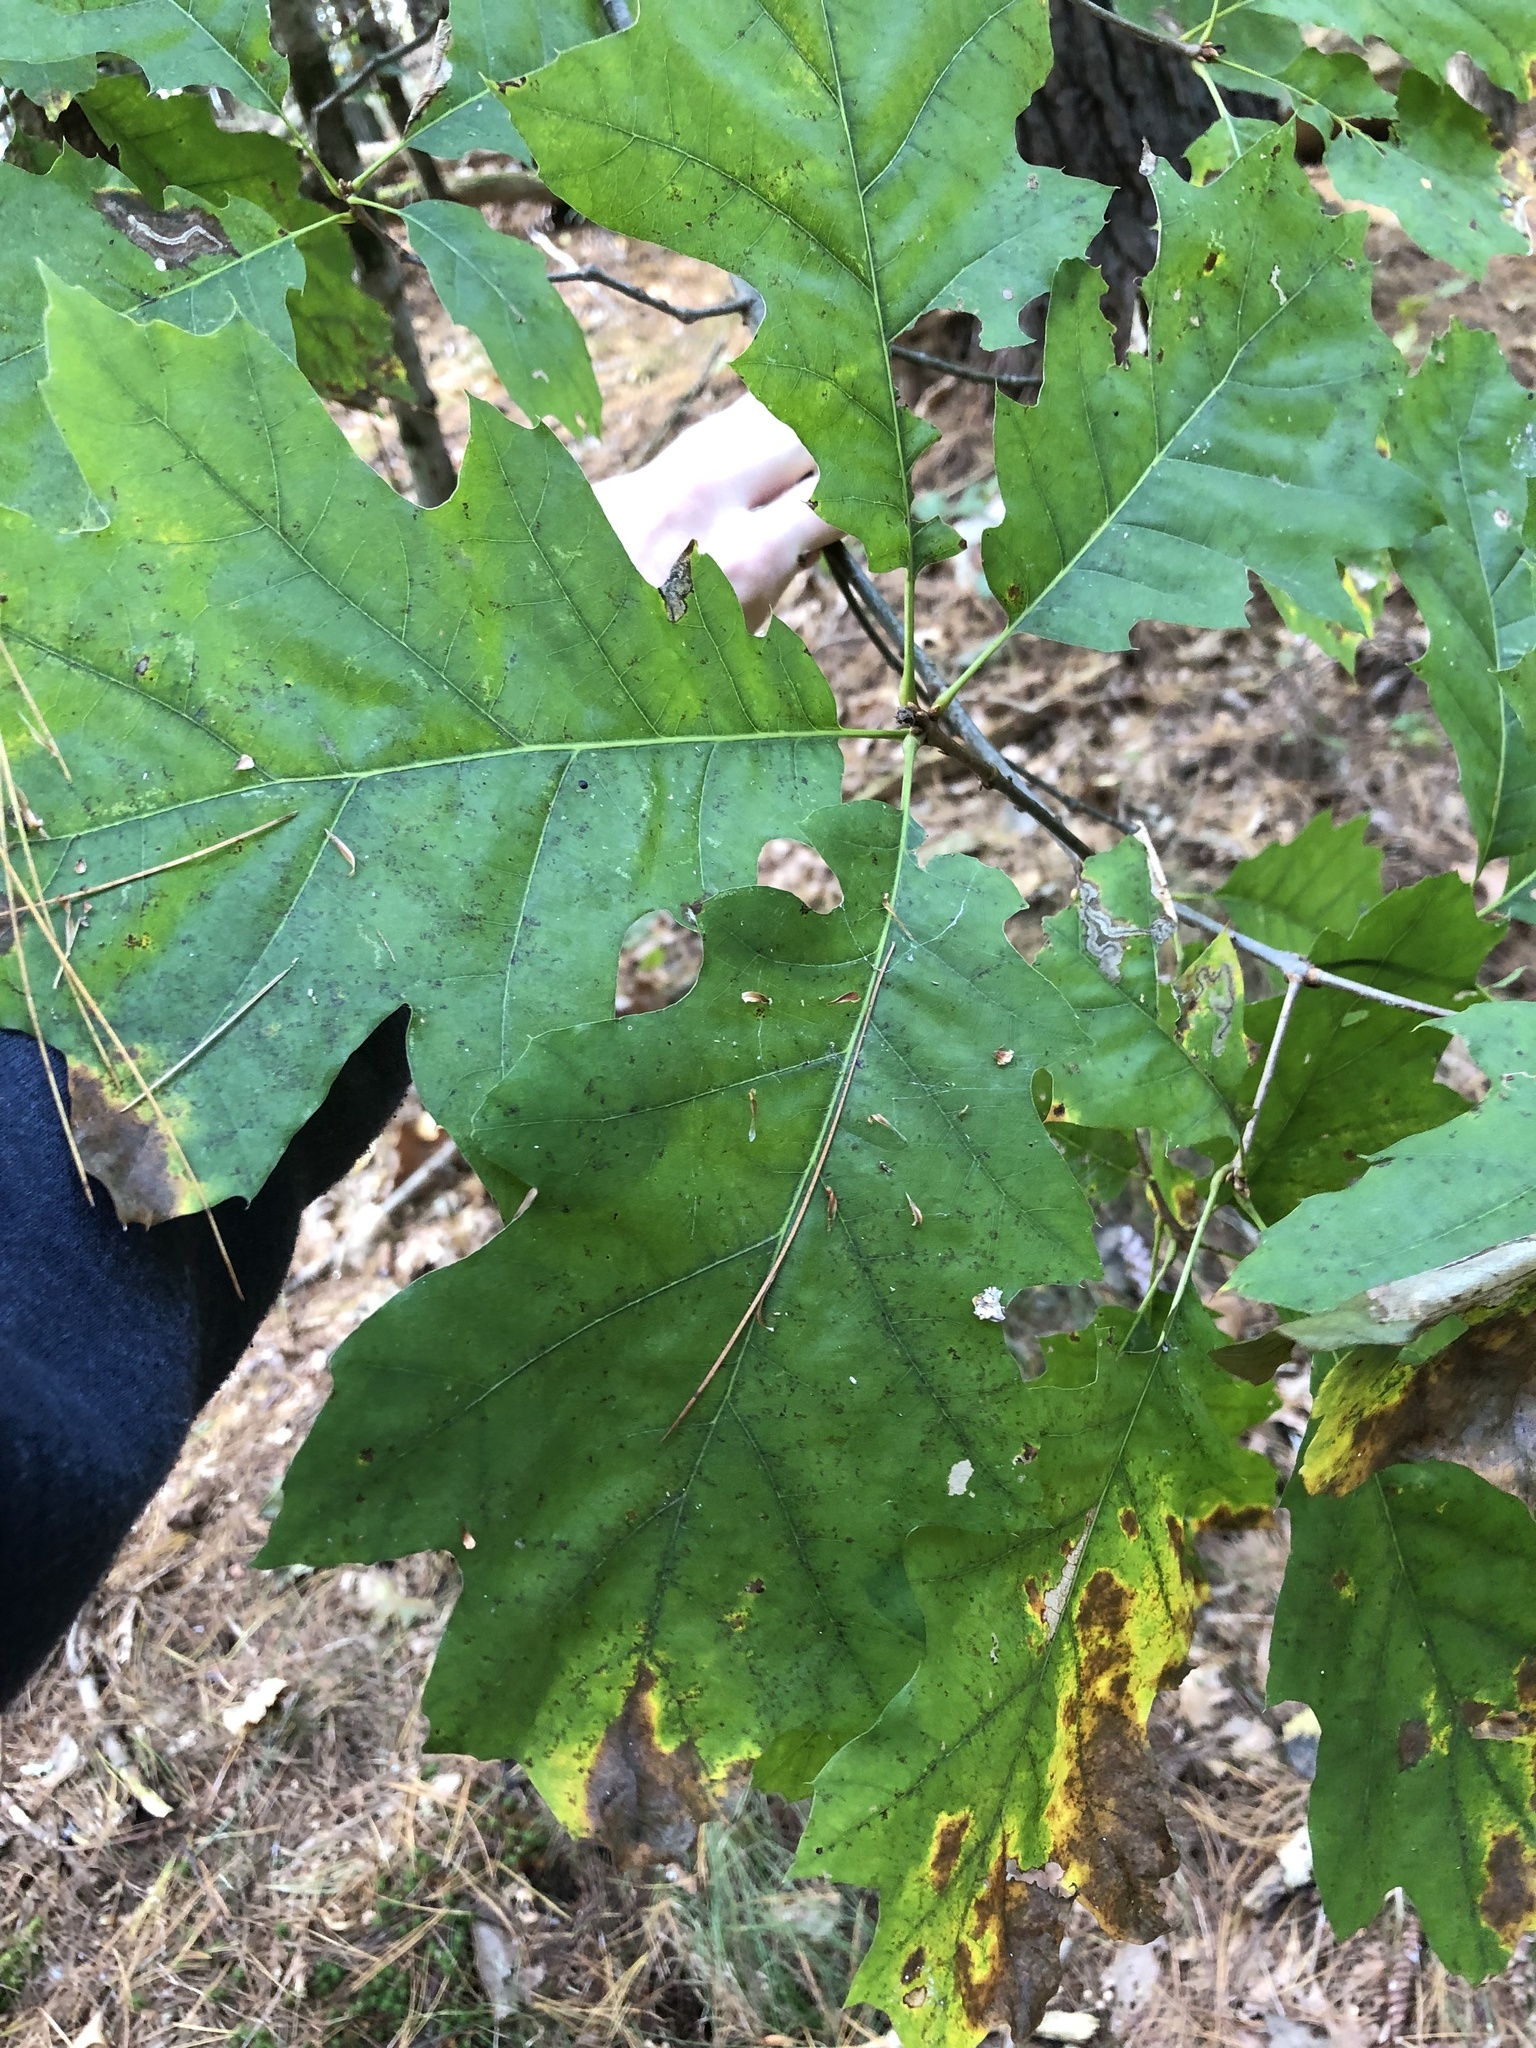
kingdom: Plantae
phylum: Tracheophyta
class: Magnoliopsida
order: Fagales
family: Fagaceae
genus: Quercus
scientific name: Quercus velutina
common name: Black oak
